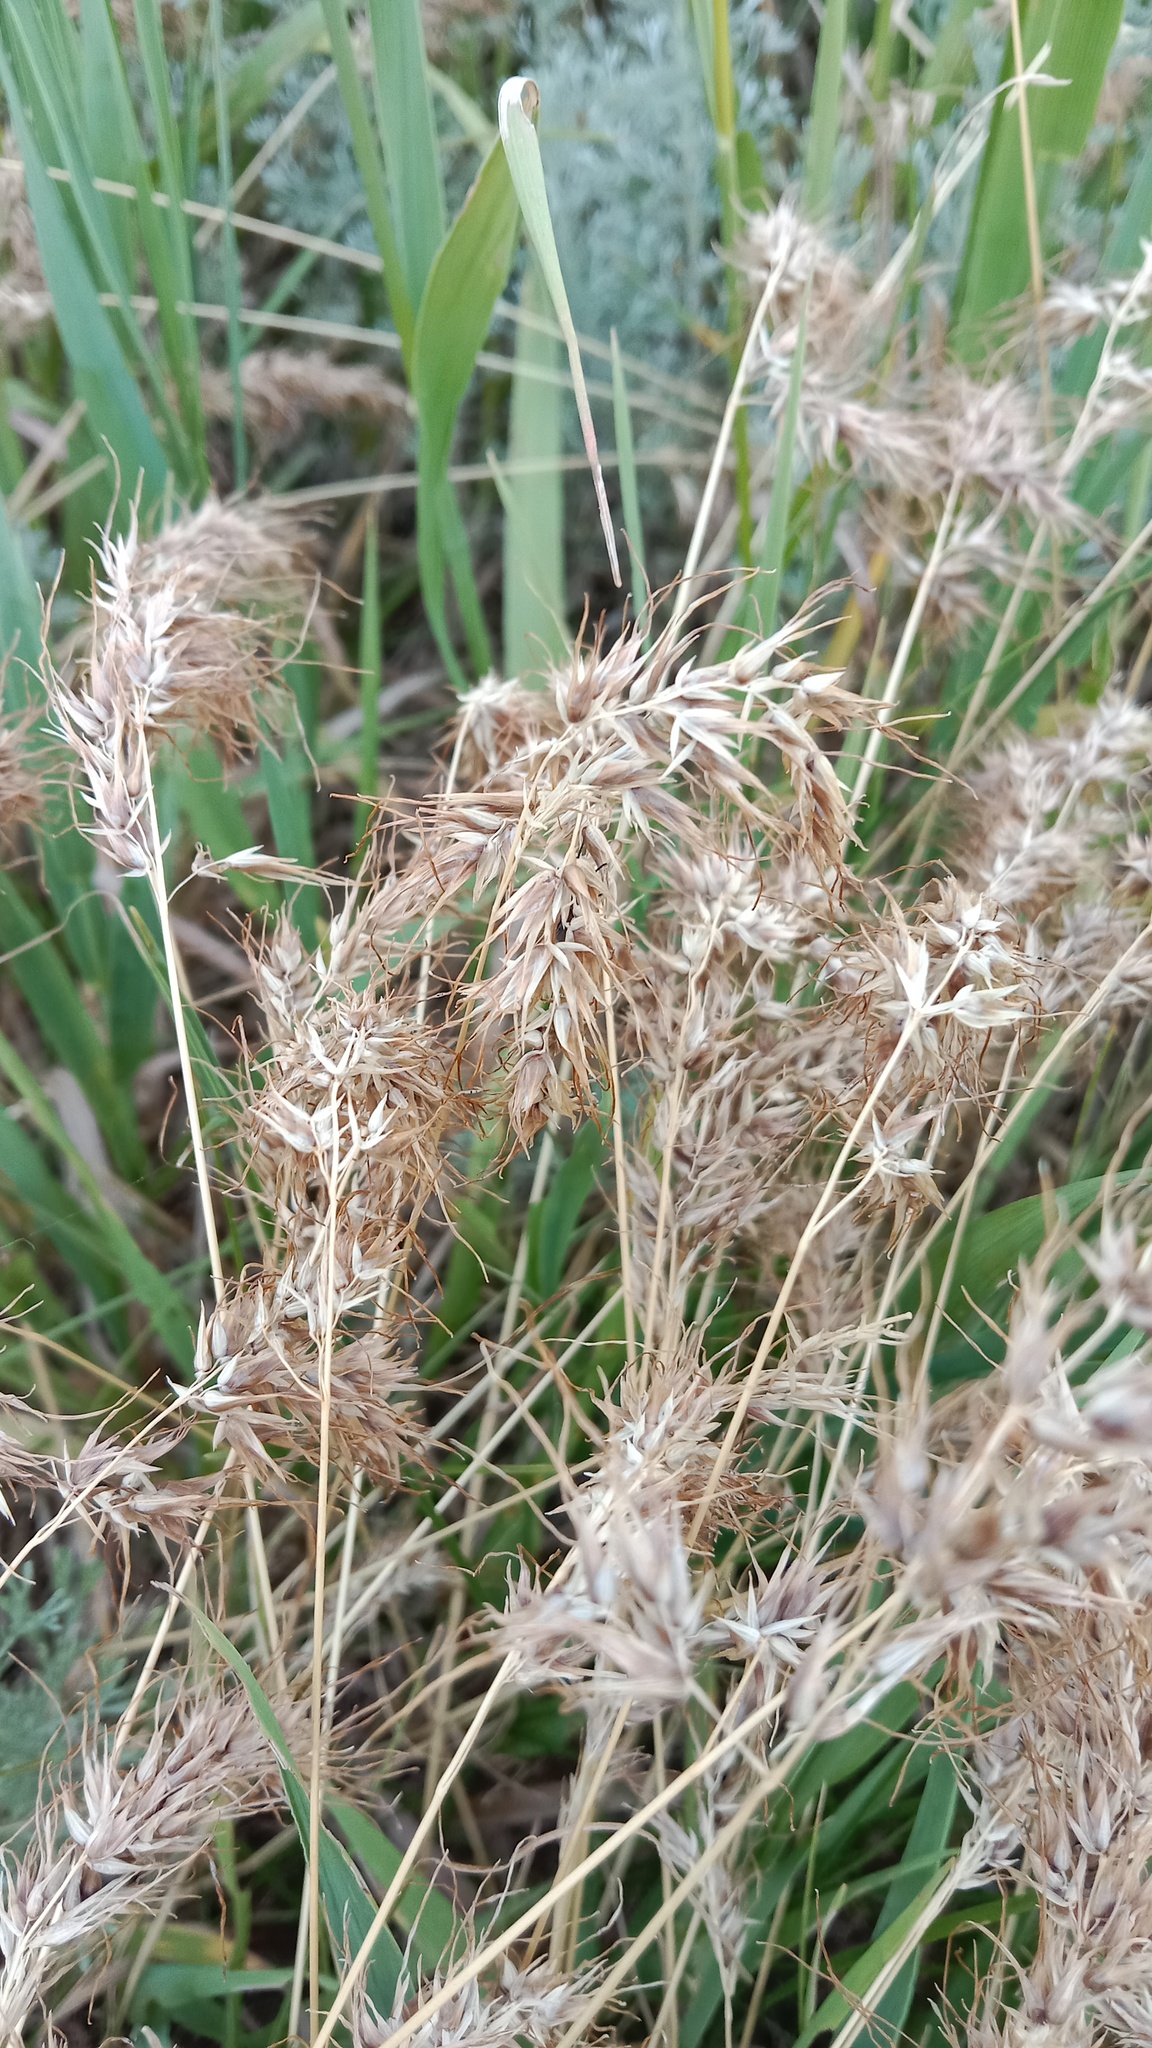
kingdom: Plantae
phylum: Tracheophyta
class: Liliopsida
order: Poales
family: Poaceae
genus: Poa
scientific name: Poa bulbosa
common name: Bulbous bluegrass
